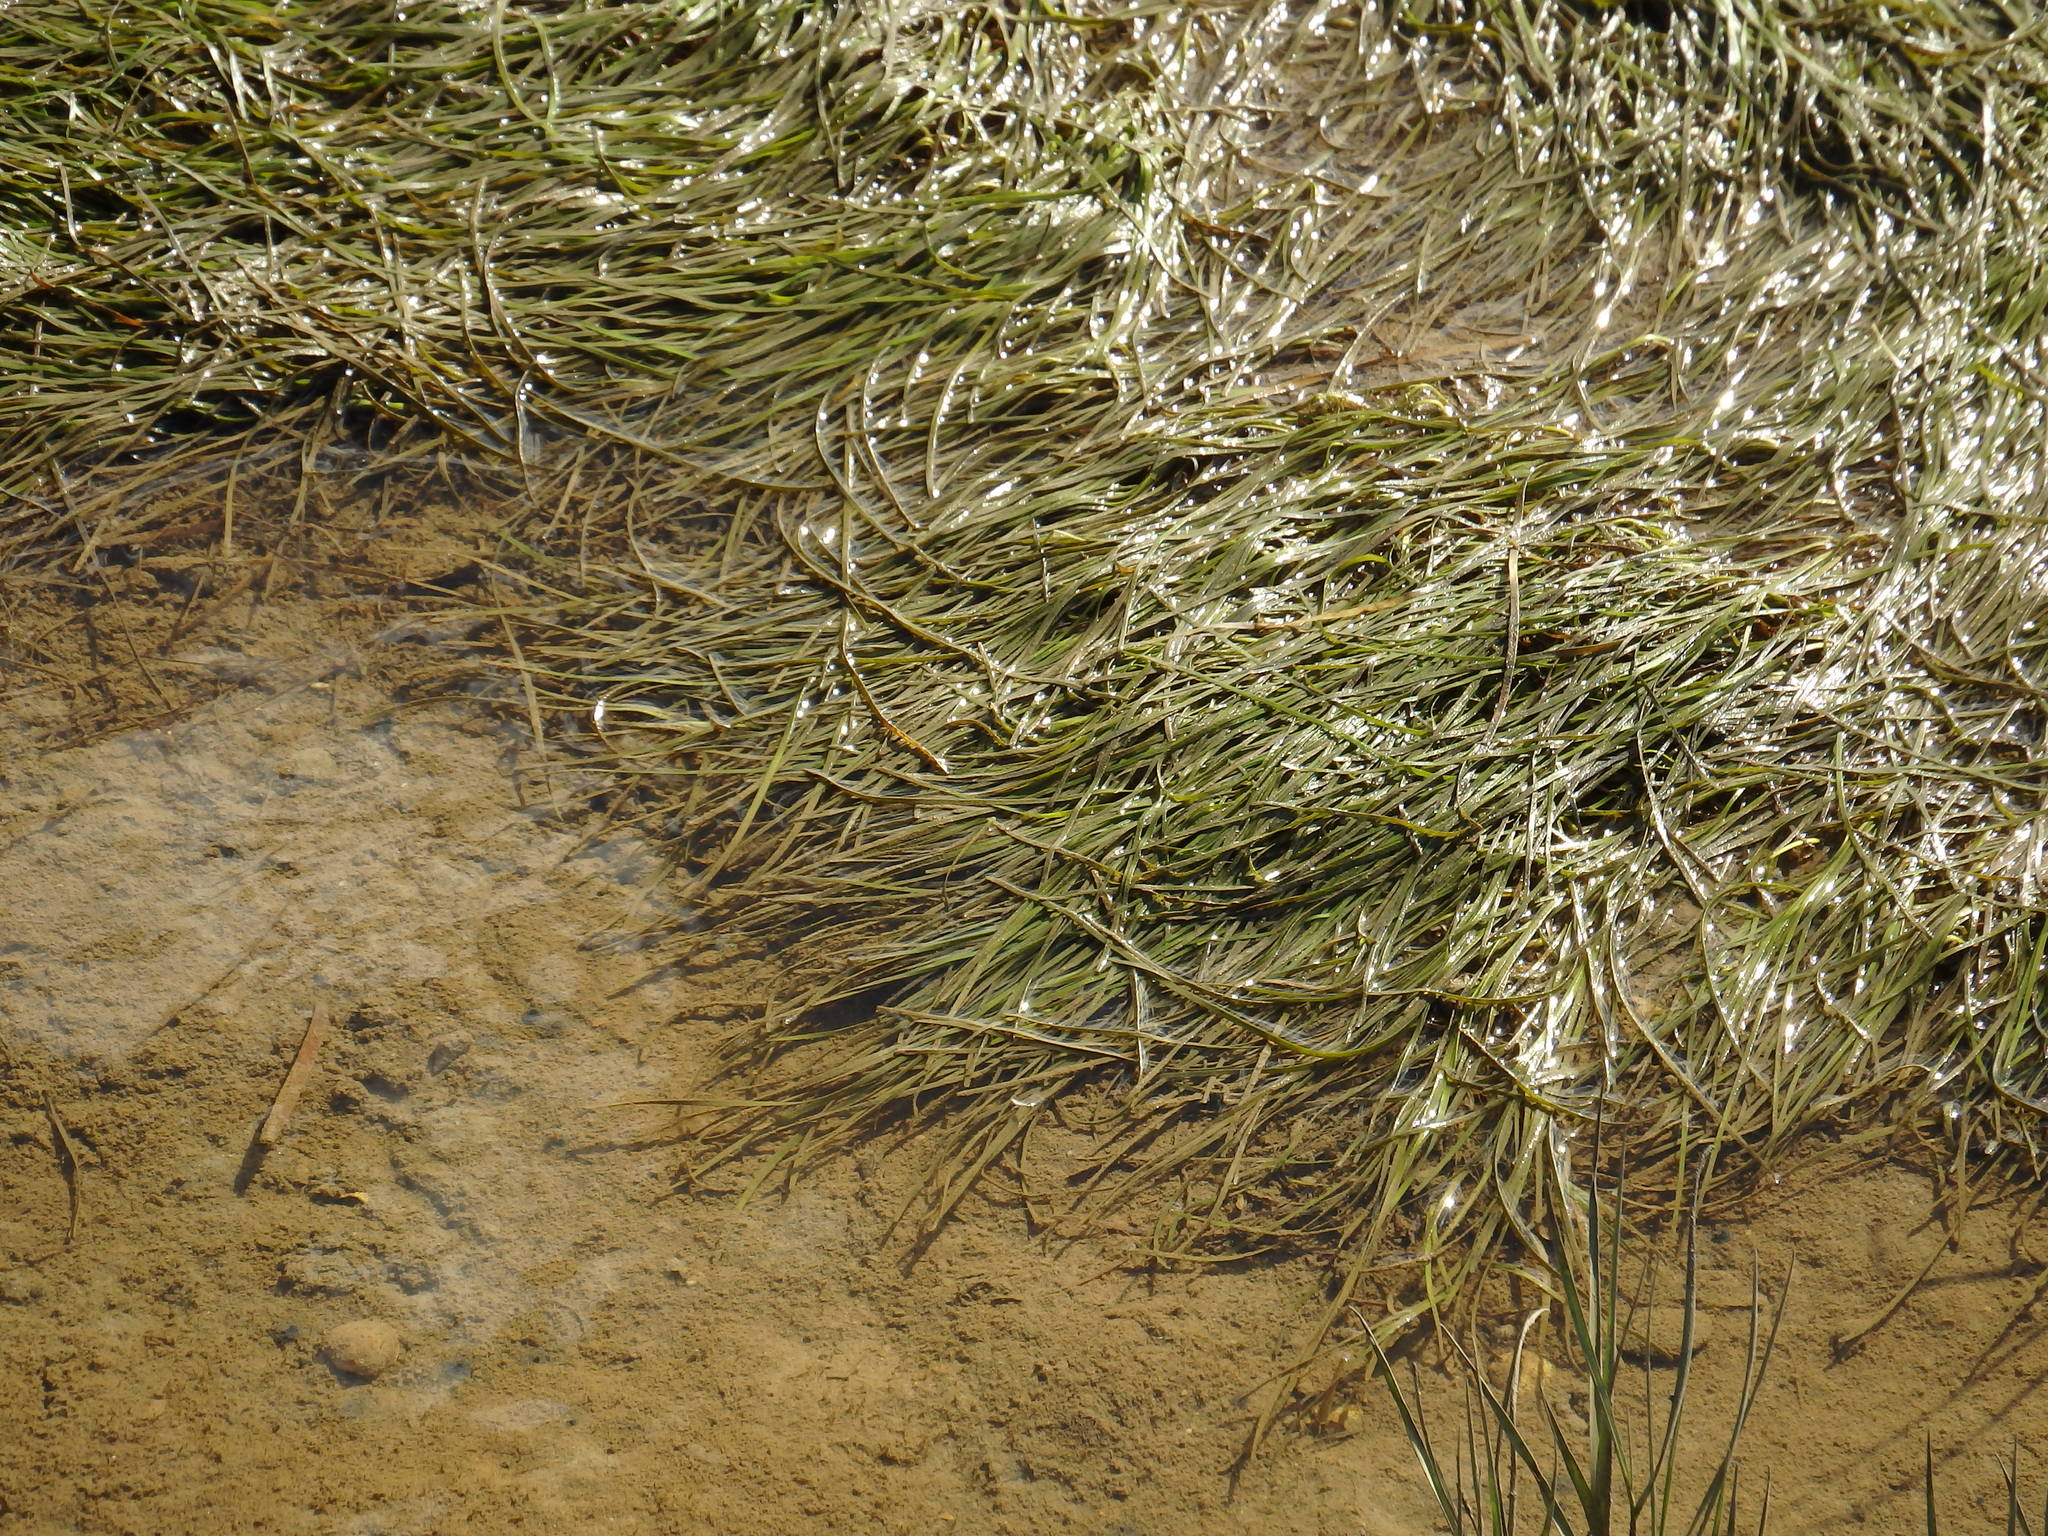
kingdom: Plantae
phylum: Tracheophyta
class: Liliopsida
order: Alismatales
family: Zosteraceae
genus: Zostera
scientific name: Zostera noltii
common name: Dwarf eelgrass
